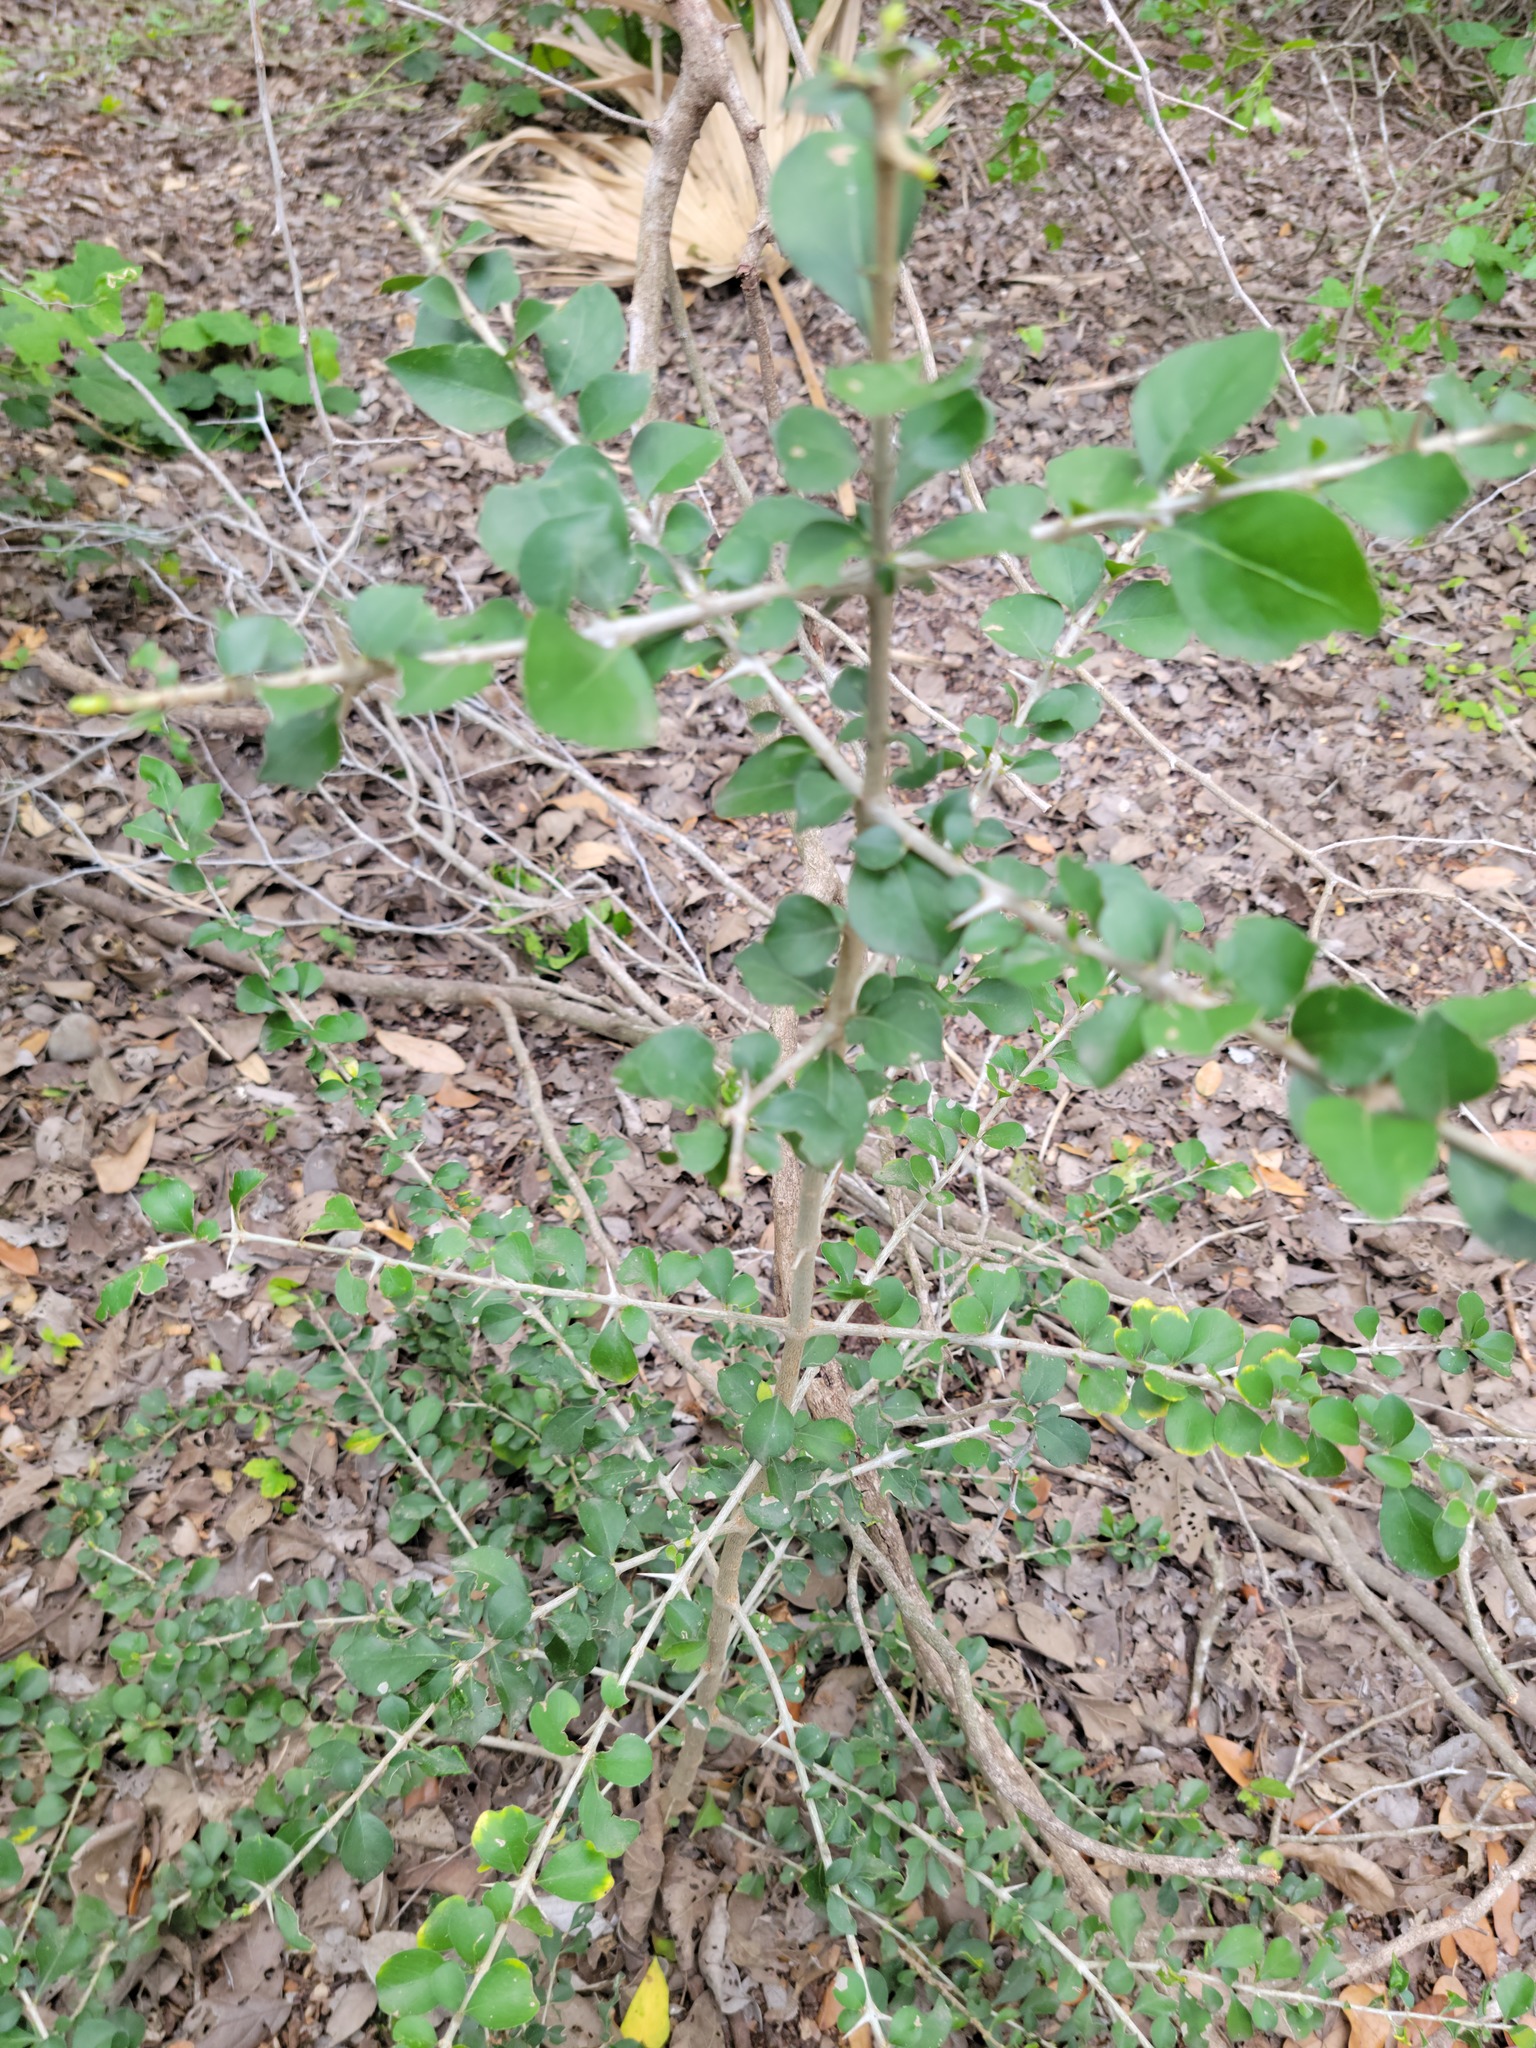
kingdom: Plantae
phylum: Tracheophyta
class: Magnoliopsida
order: Gentianales
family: Rubiaceae
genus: Randia
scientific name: Randia obcordata
